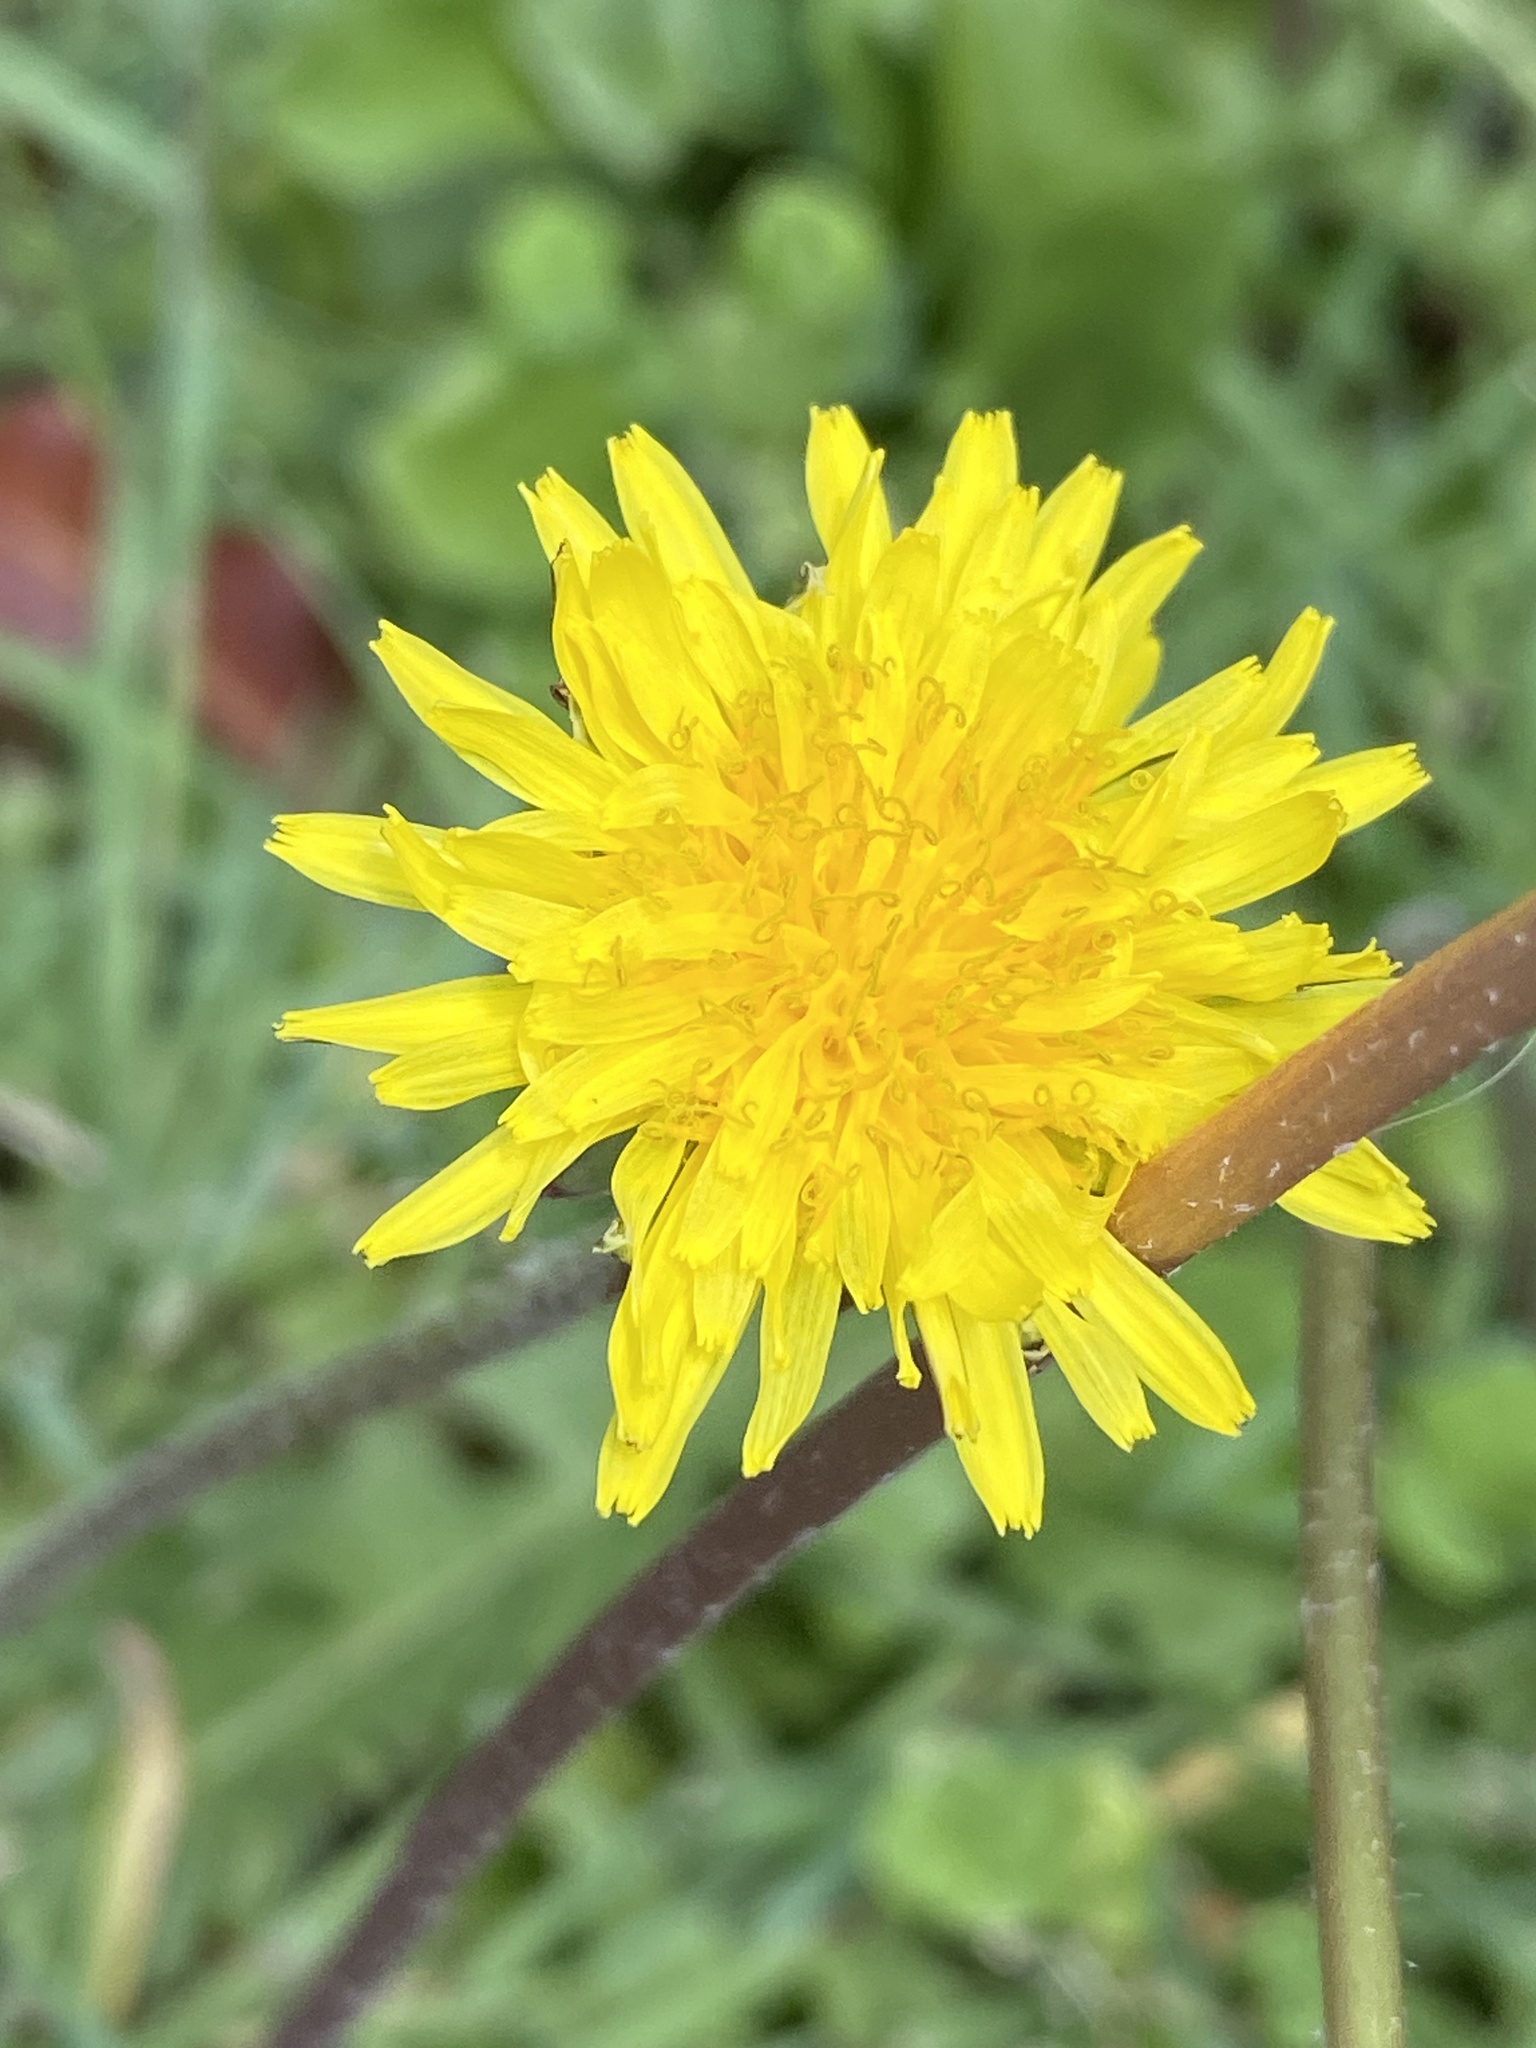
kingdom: Plantae
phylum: Tracheophyta
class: Magnoliopsida
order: Asterales
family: Asteraceae
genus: Taraxacum
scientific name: Taraxacum officinale
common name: Common dandelion
